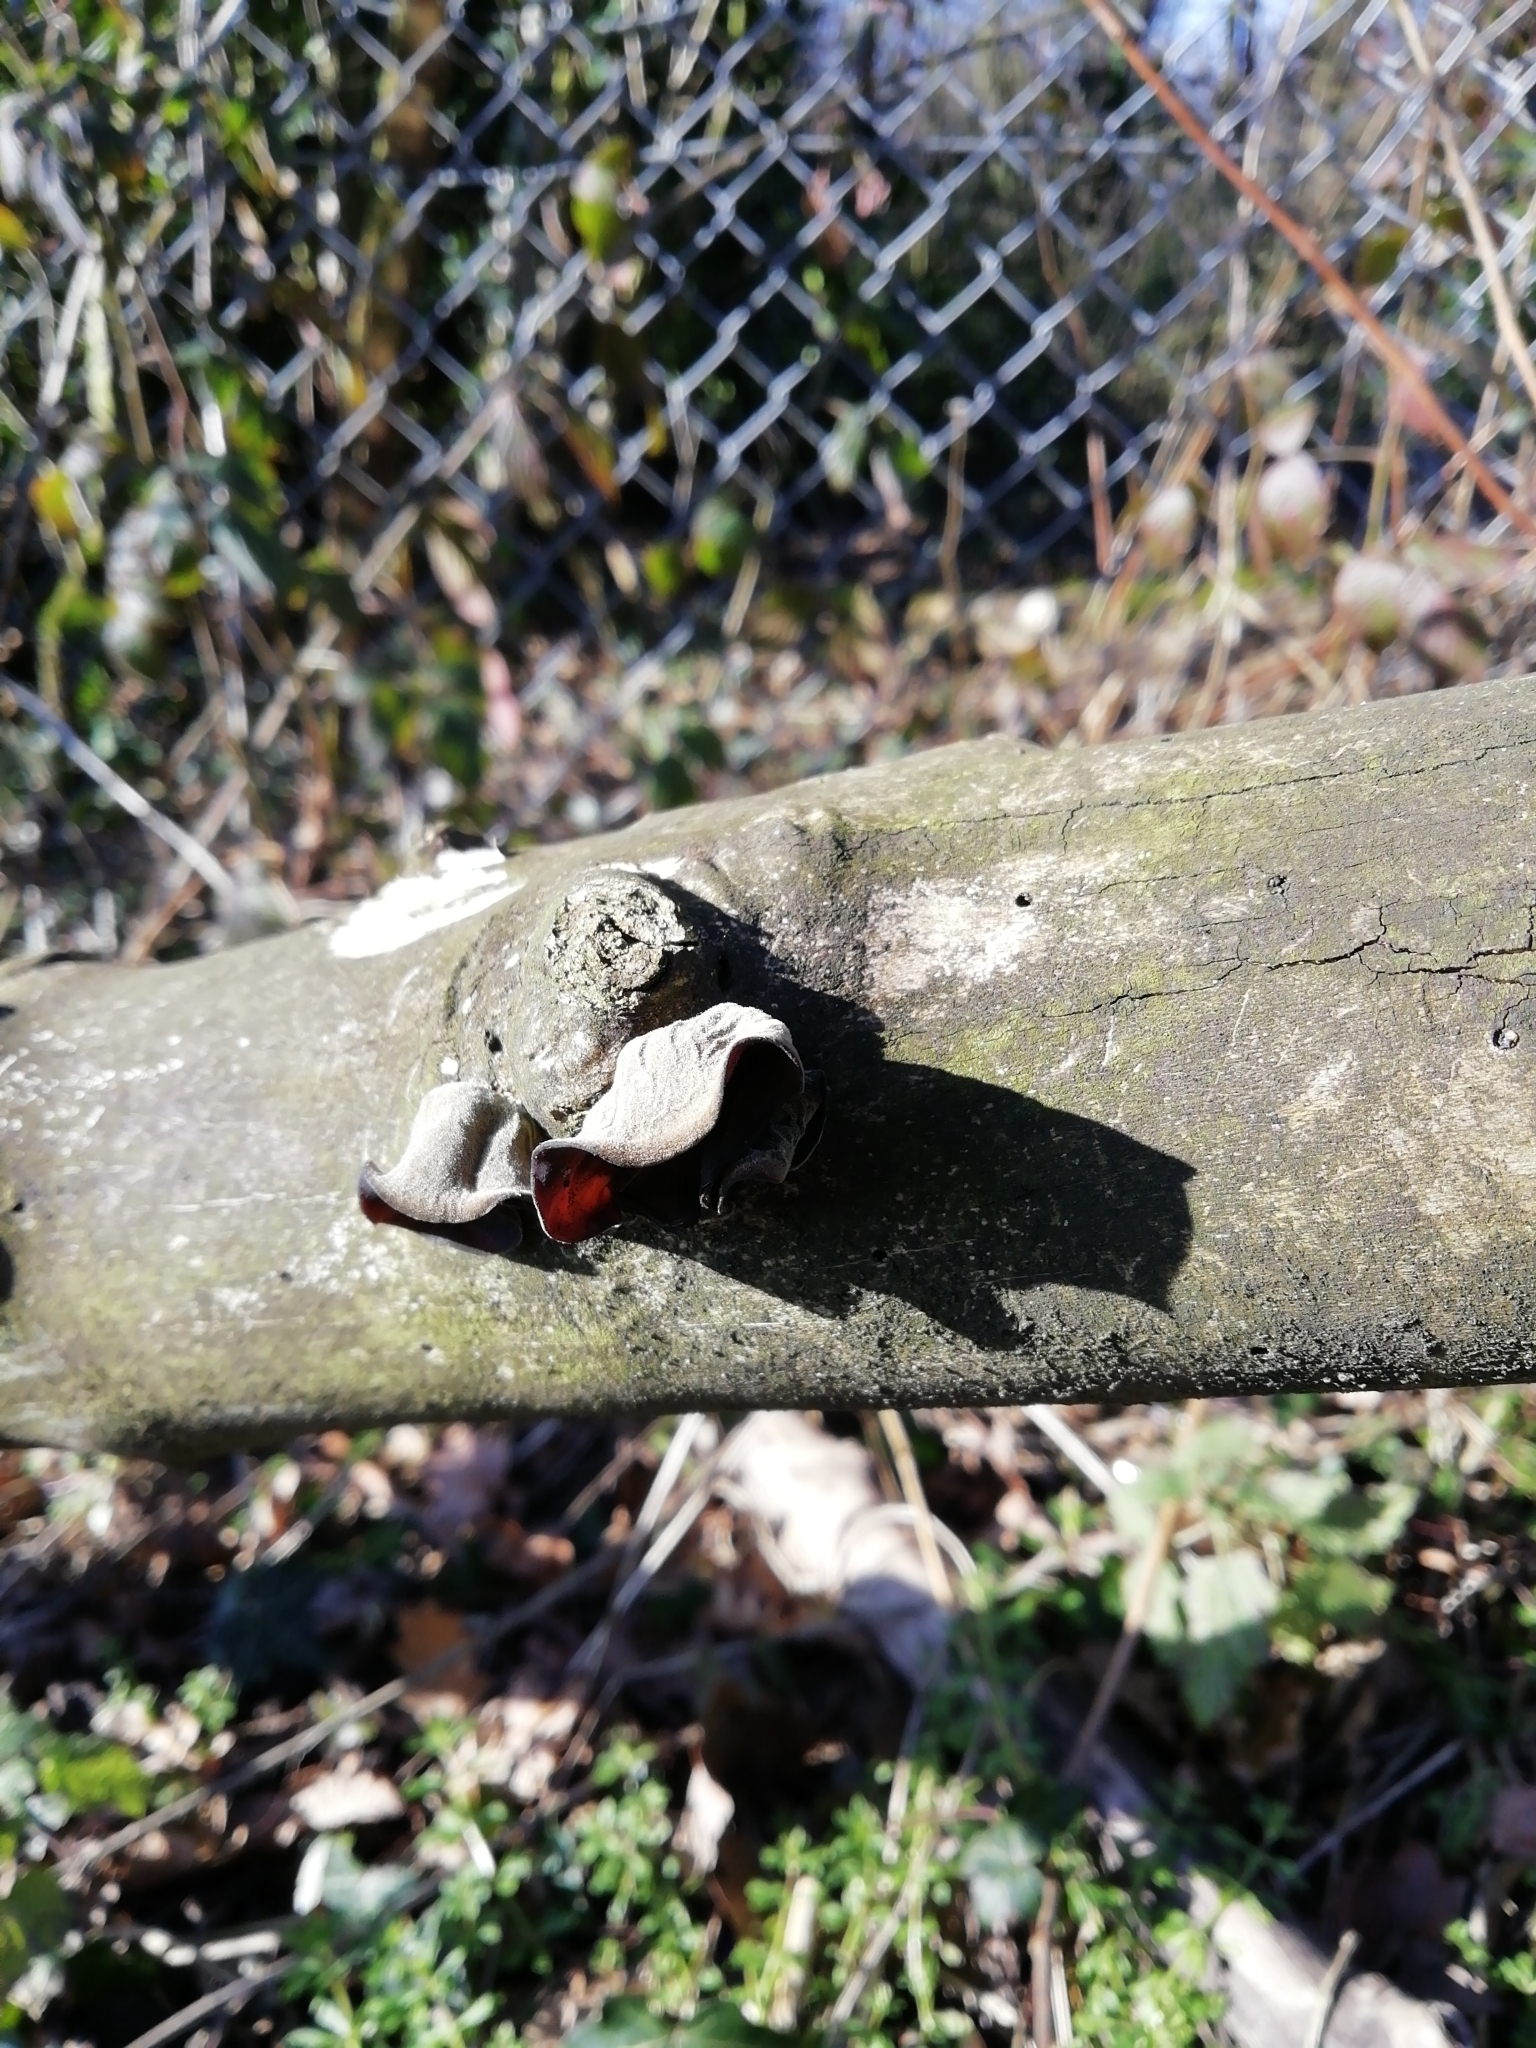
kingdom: Fungi
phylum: Basidiomycota
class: Agaricomycetes
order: Auriculariales
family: Auriculariaceae
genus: Auricularia
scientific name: Auricularia auricula-judae
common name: Jelly ear
